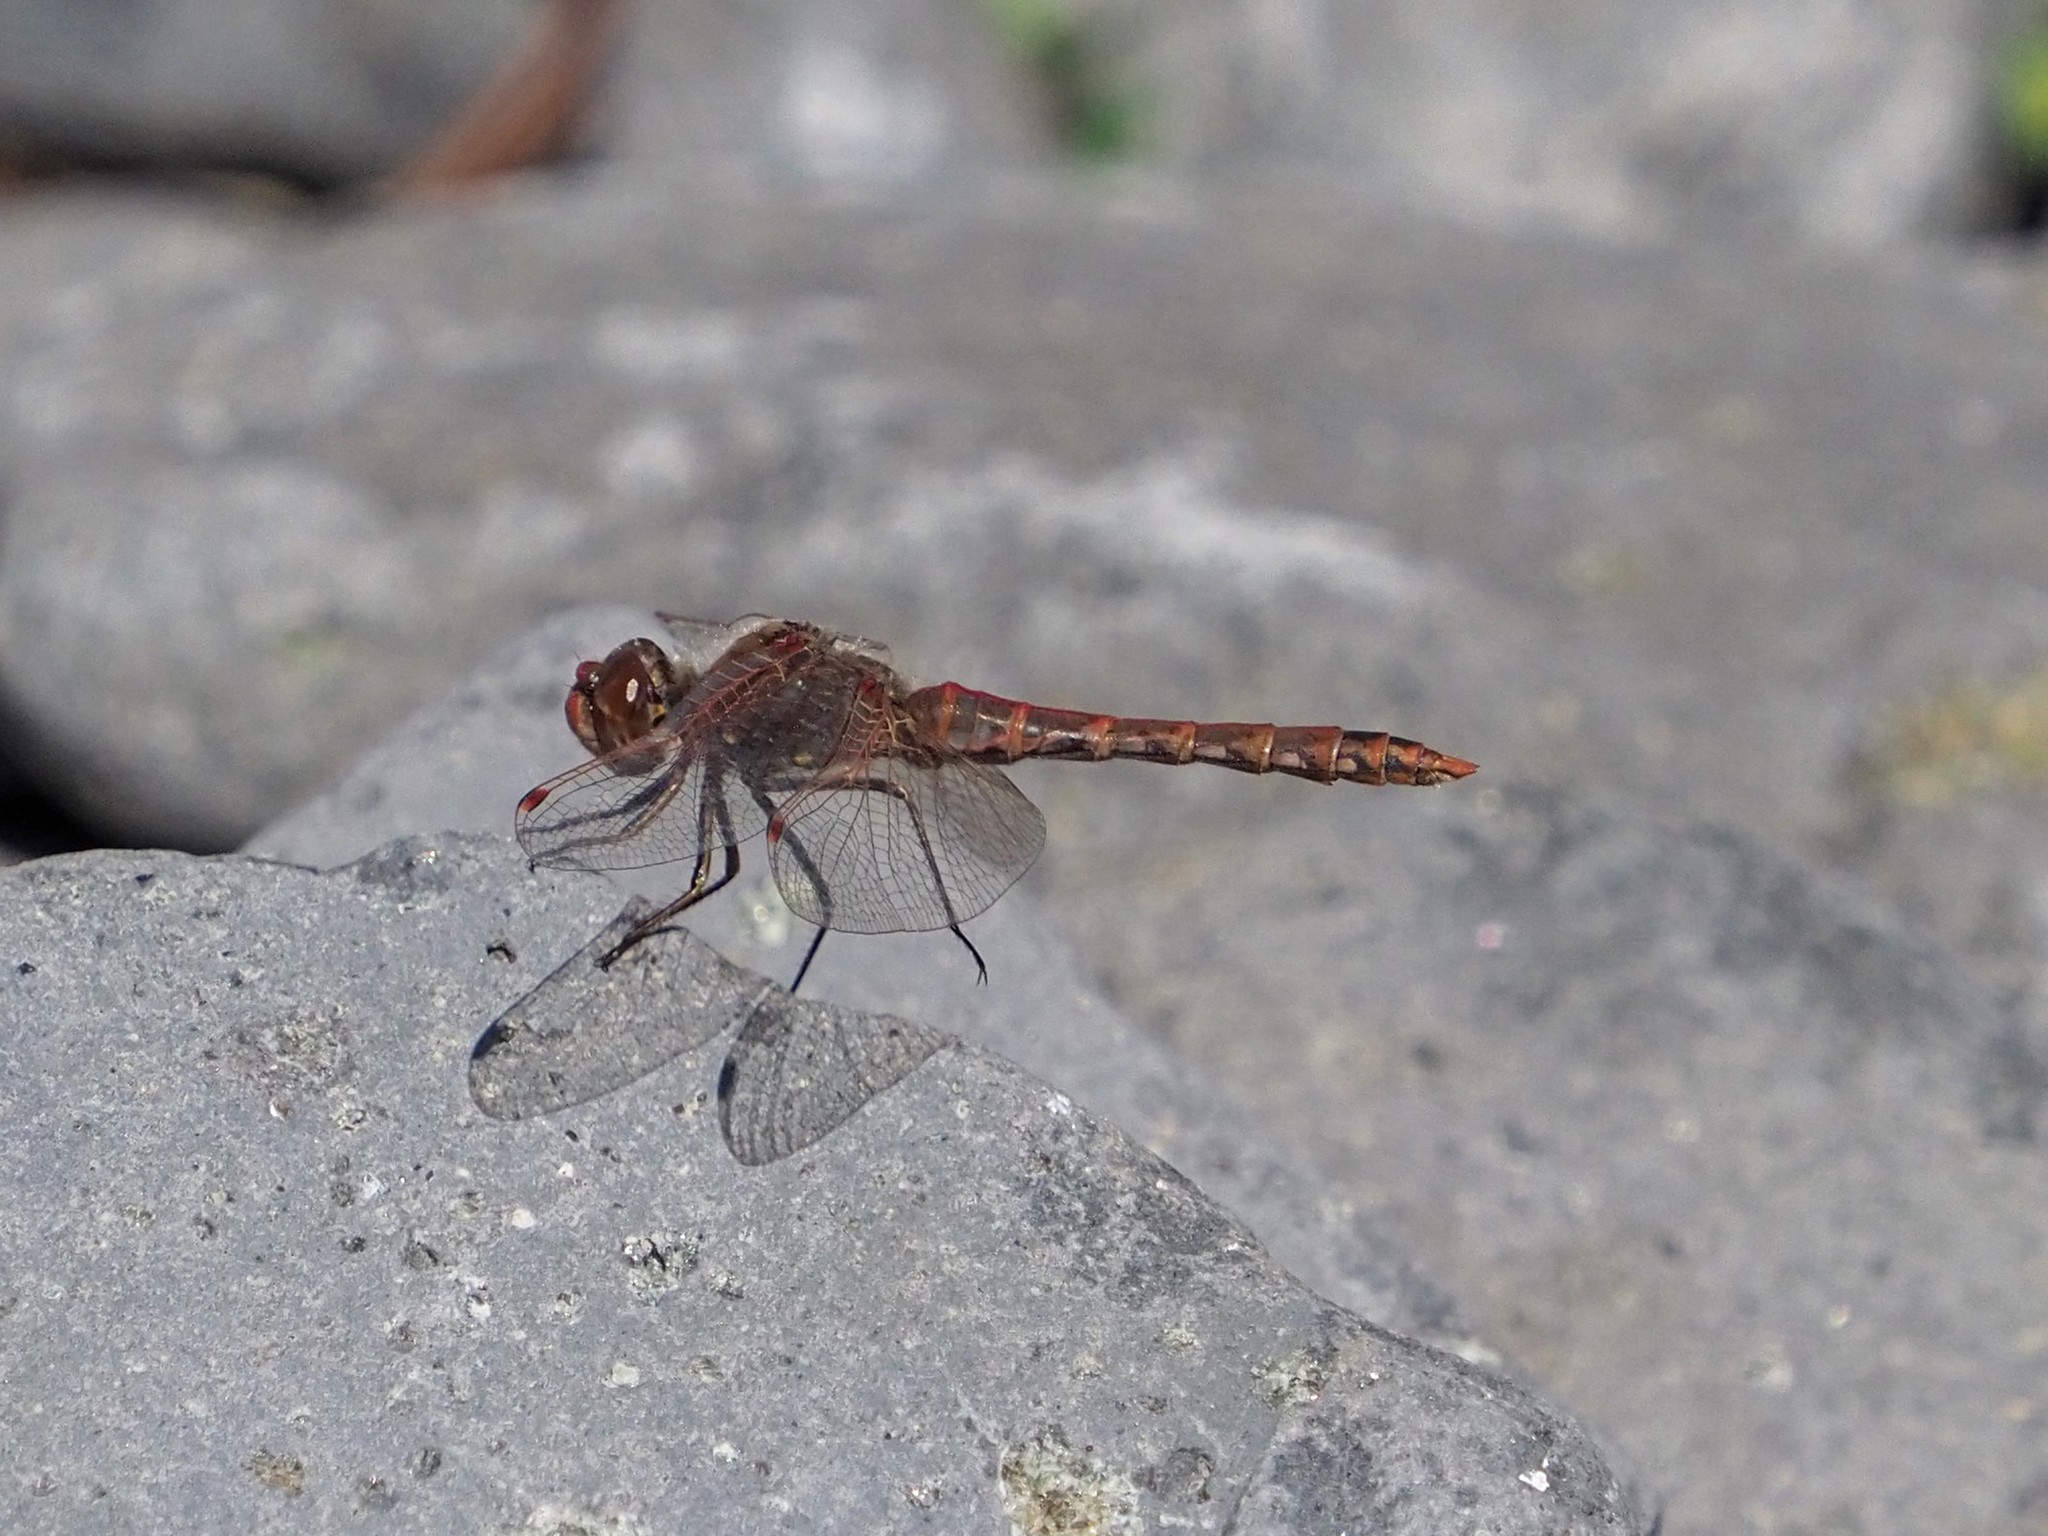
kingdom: Animalia
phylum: Arthropoda
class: Insecta
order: Odonata
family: Libellulidae
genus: Sympetrum
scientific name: Sympetrum corruptum
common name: Variegated meadowhawk
